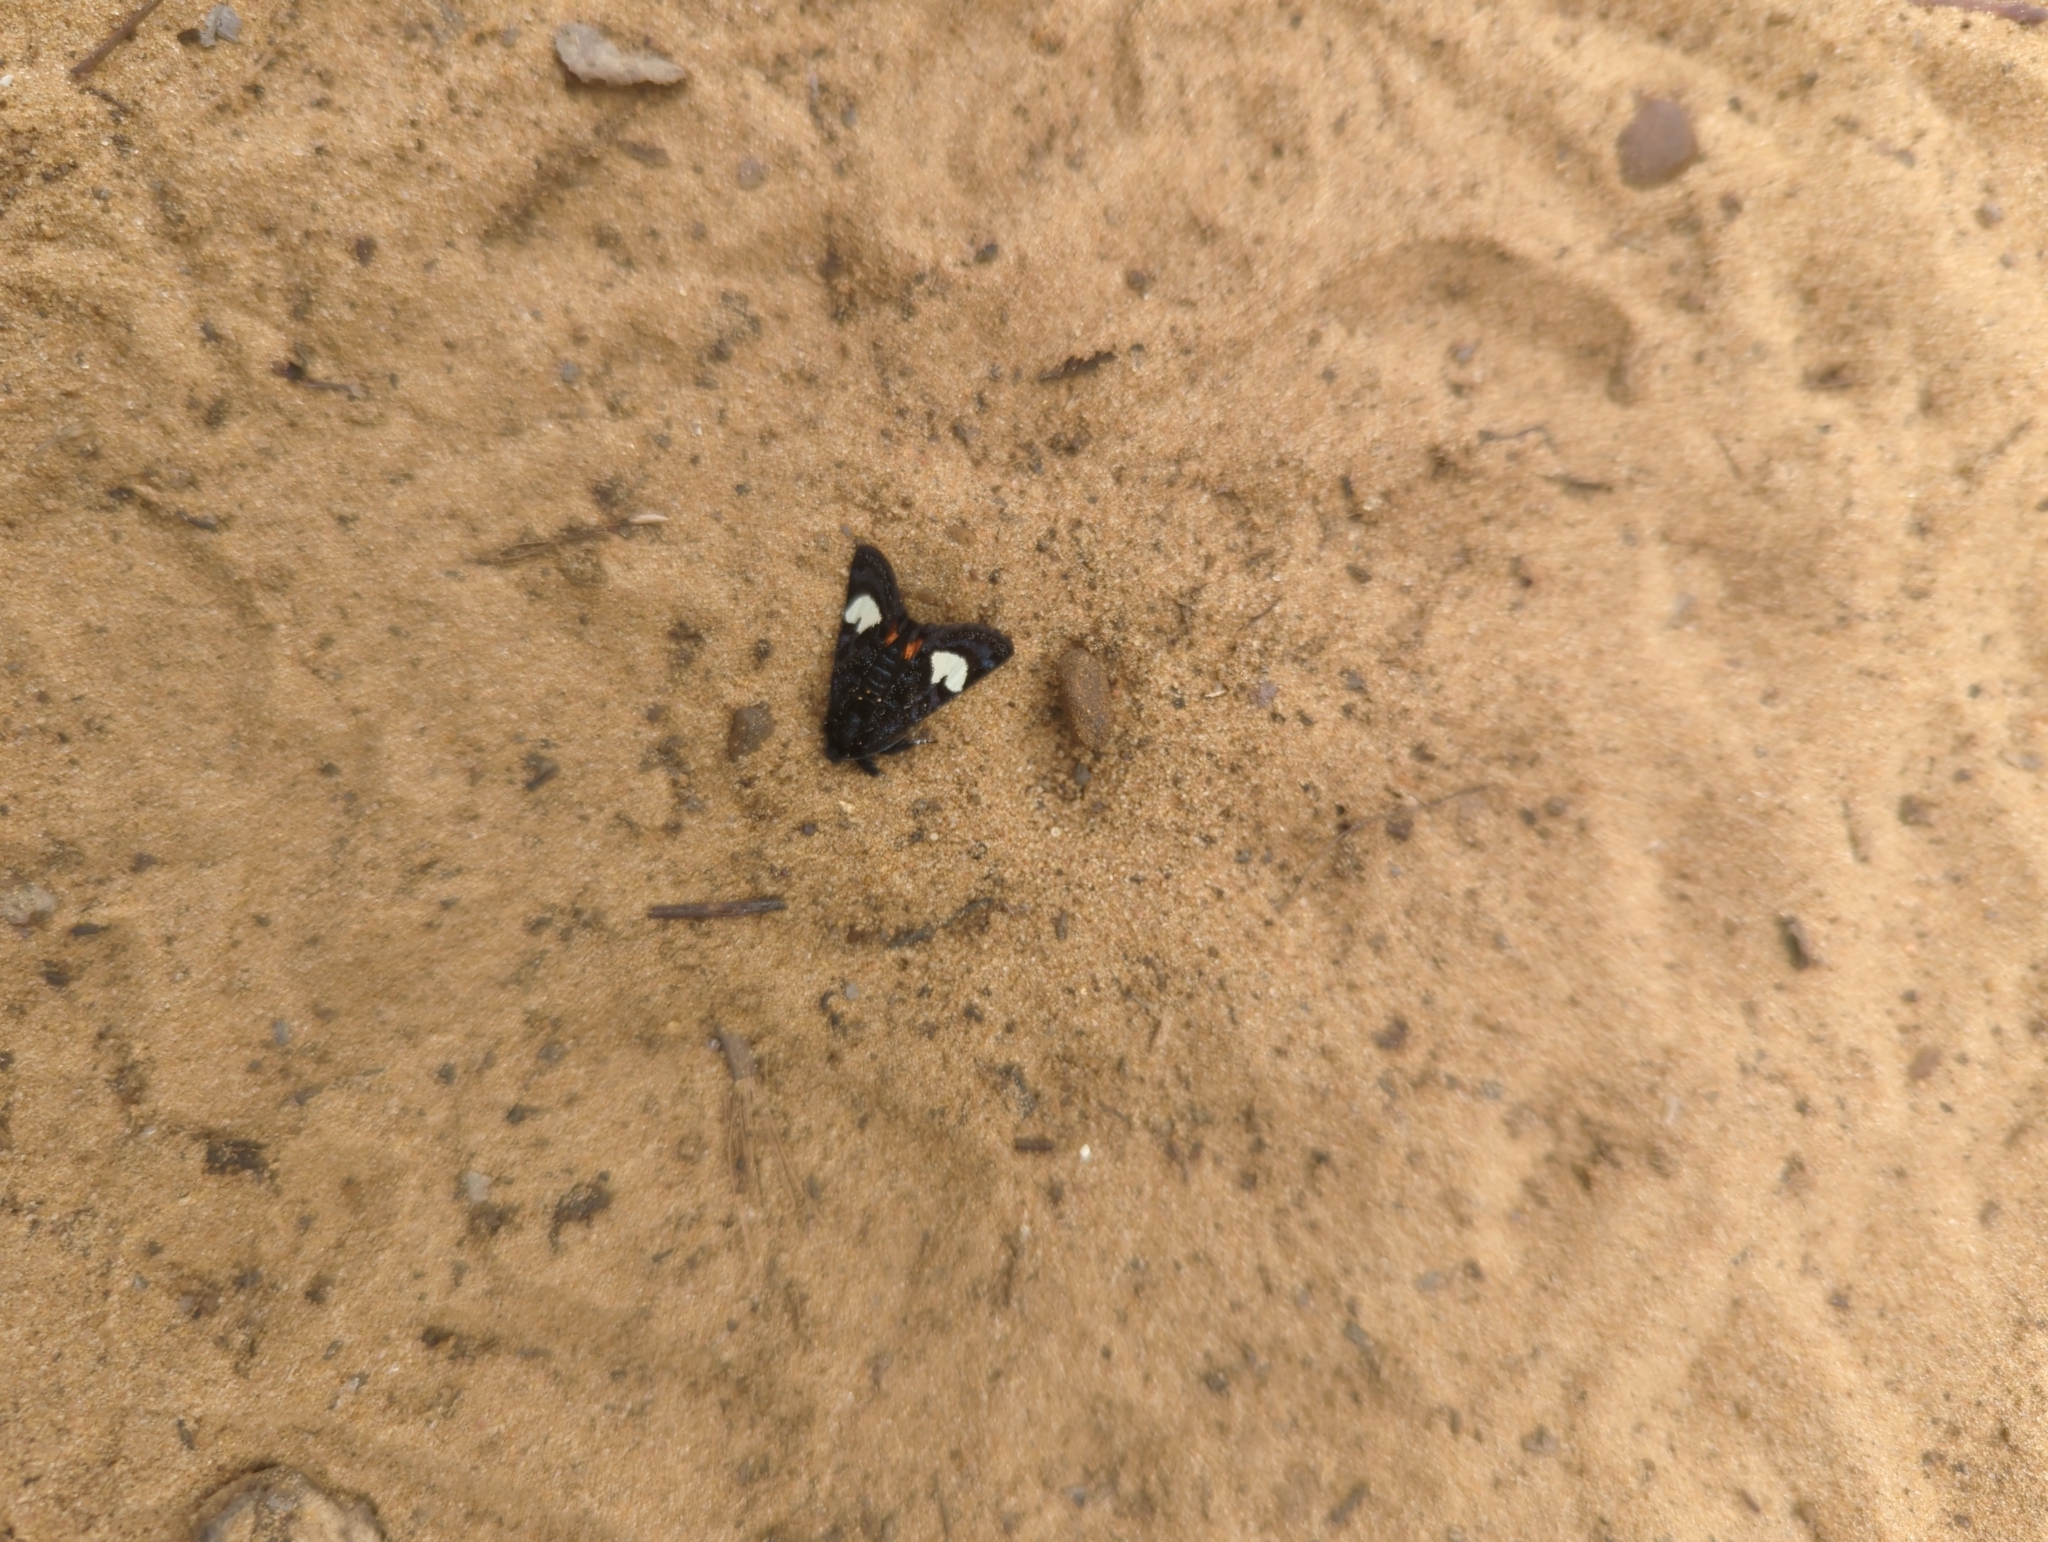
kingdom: Animalia
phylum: Arthropoda
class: Insecta
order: Lepidoptera
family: Noctuidae
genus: Psychomorpha
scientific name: Psychomorpha epimenis
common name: Grapevine epimenis moth
